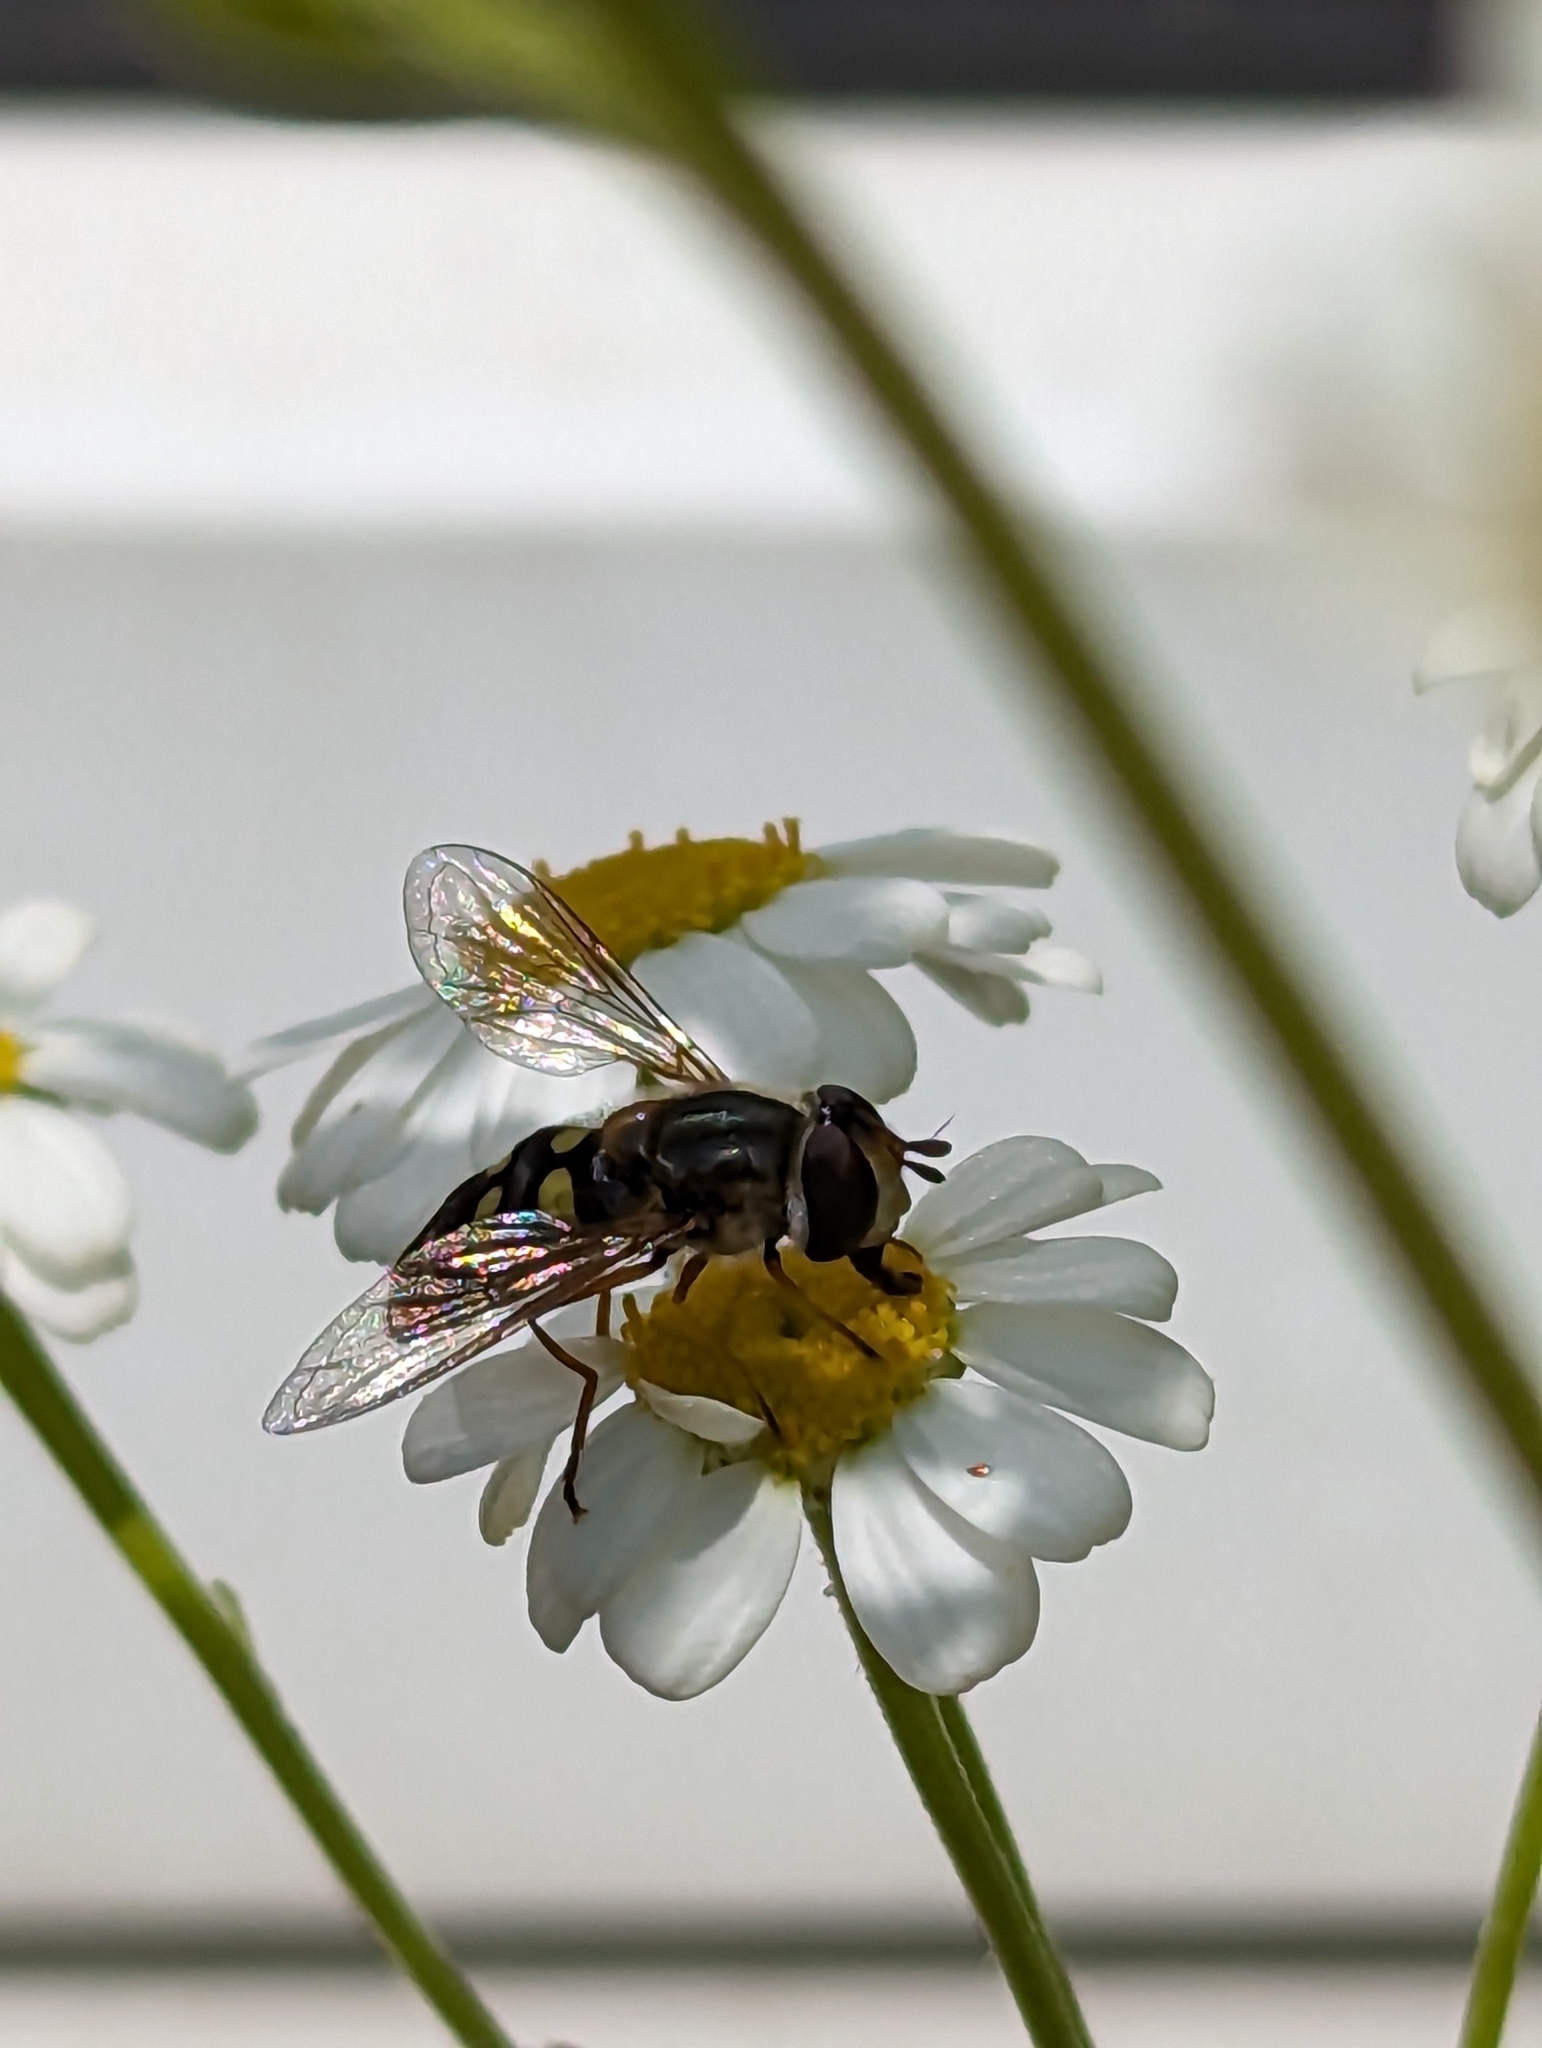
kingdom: Animalia
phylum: Arthropoda
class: Insecta
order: Diptera
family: Syrphidae
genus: Eupeodes
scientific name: Eupeodes
